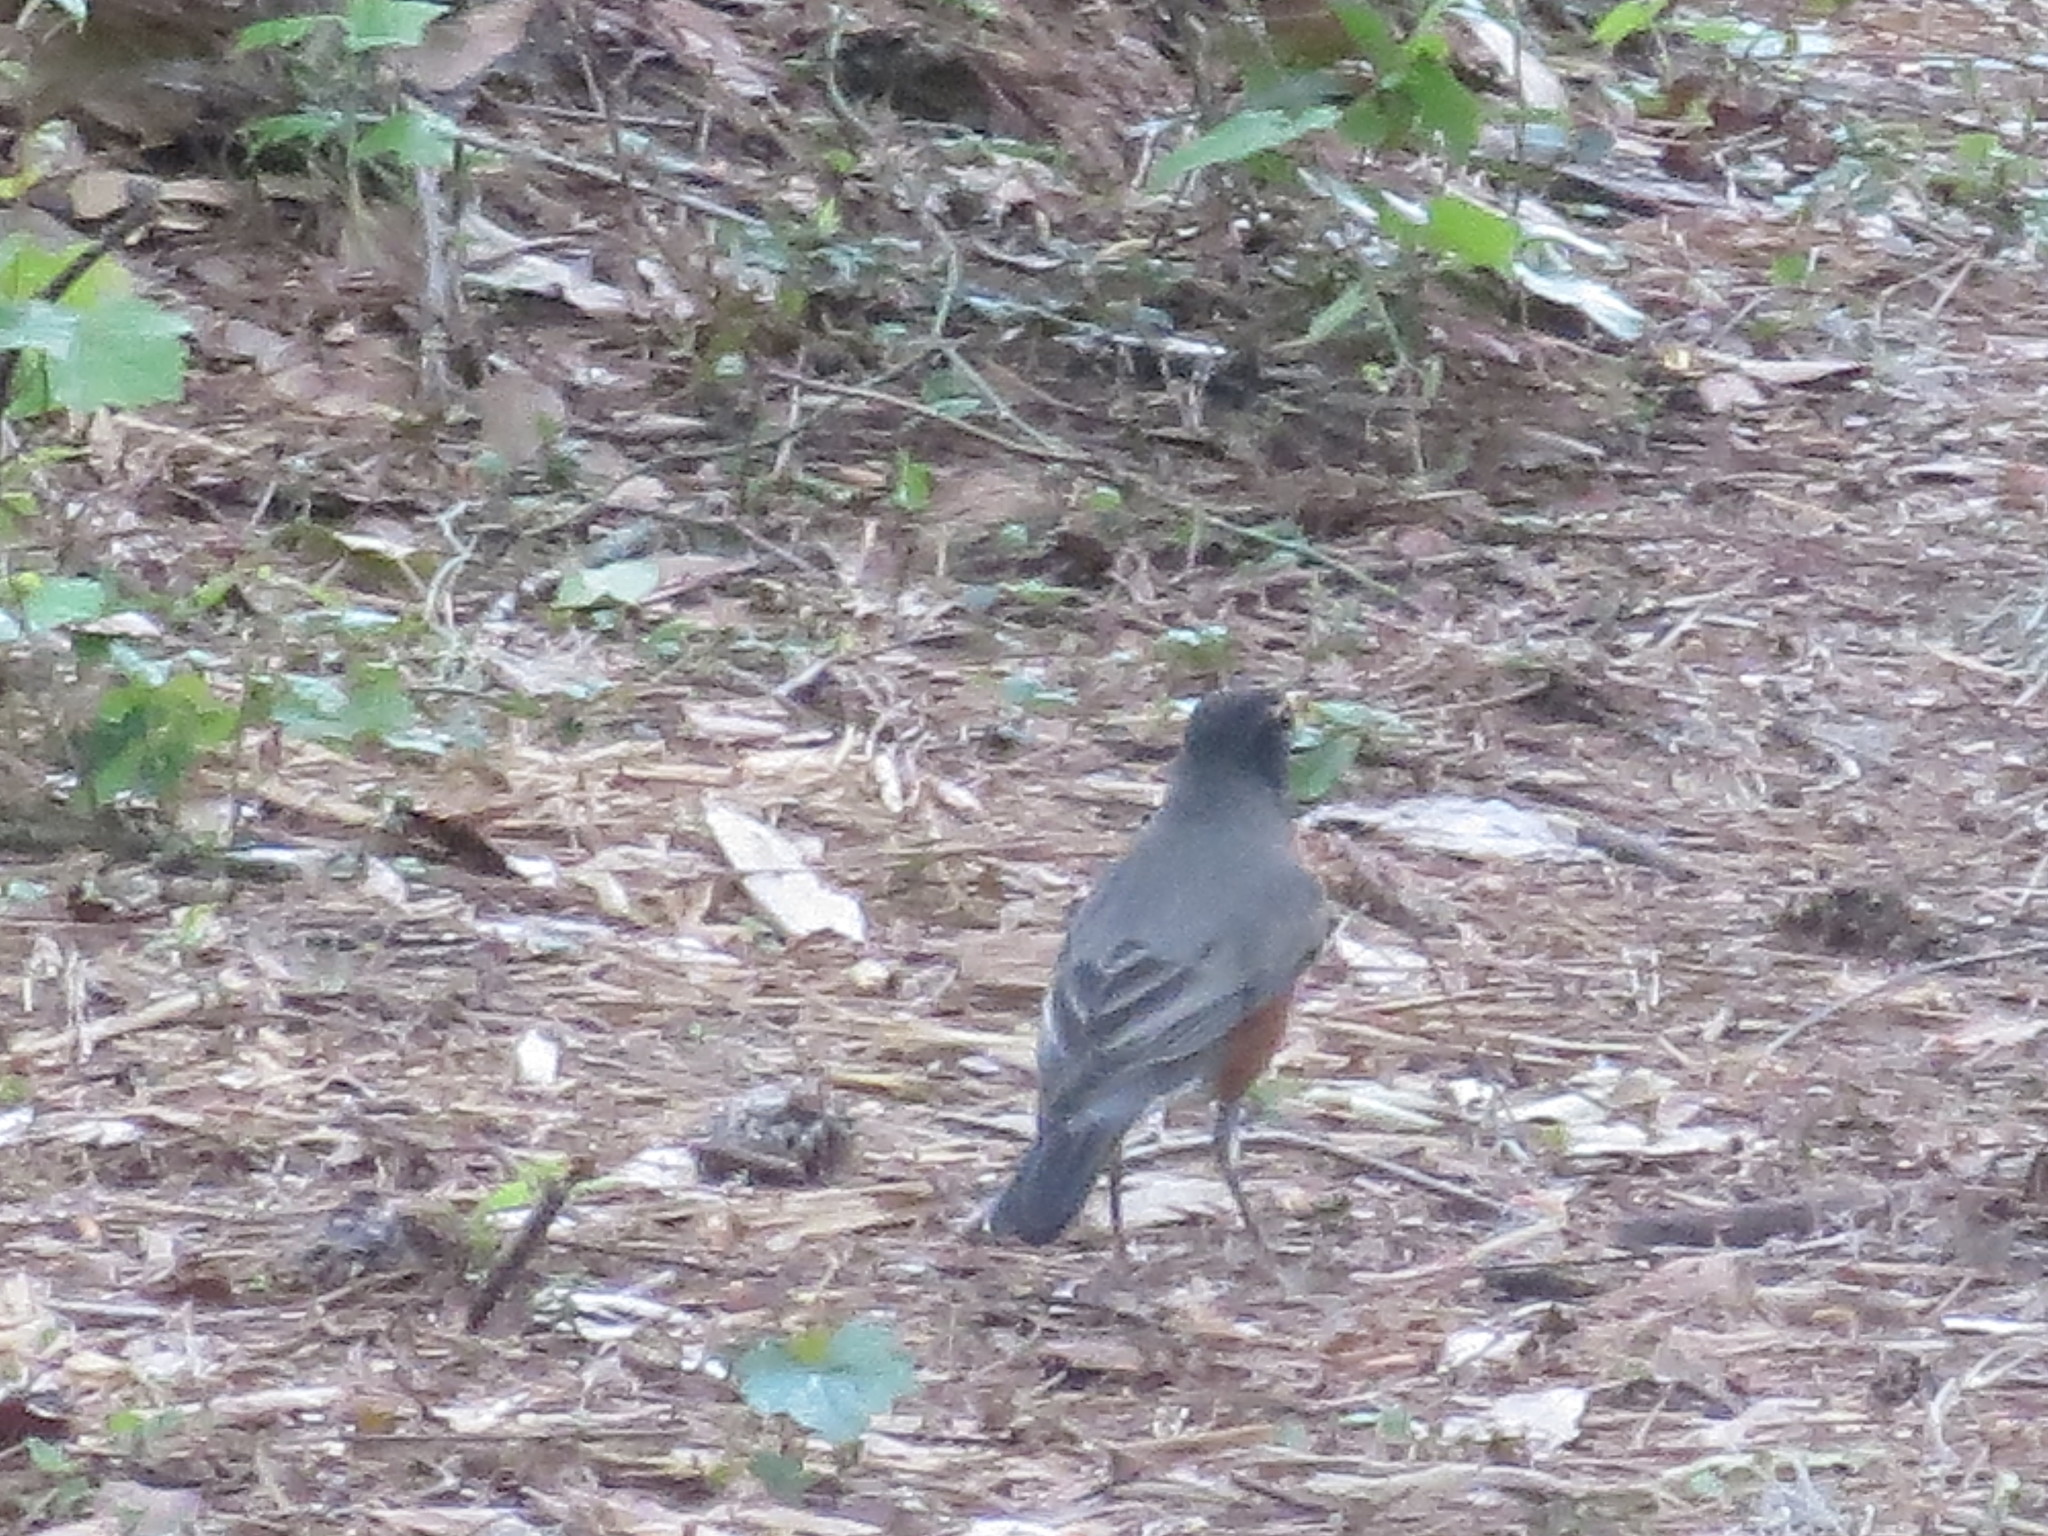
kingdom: Animalia
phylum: Chordata
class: Aves
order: Passeriformes
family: Turdidae
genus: Turdus
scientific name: Turdus migratorius
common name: American robin
